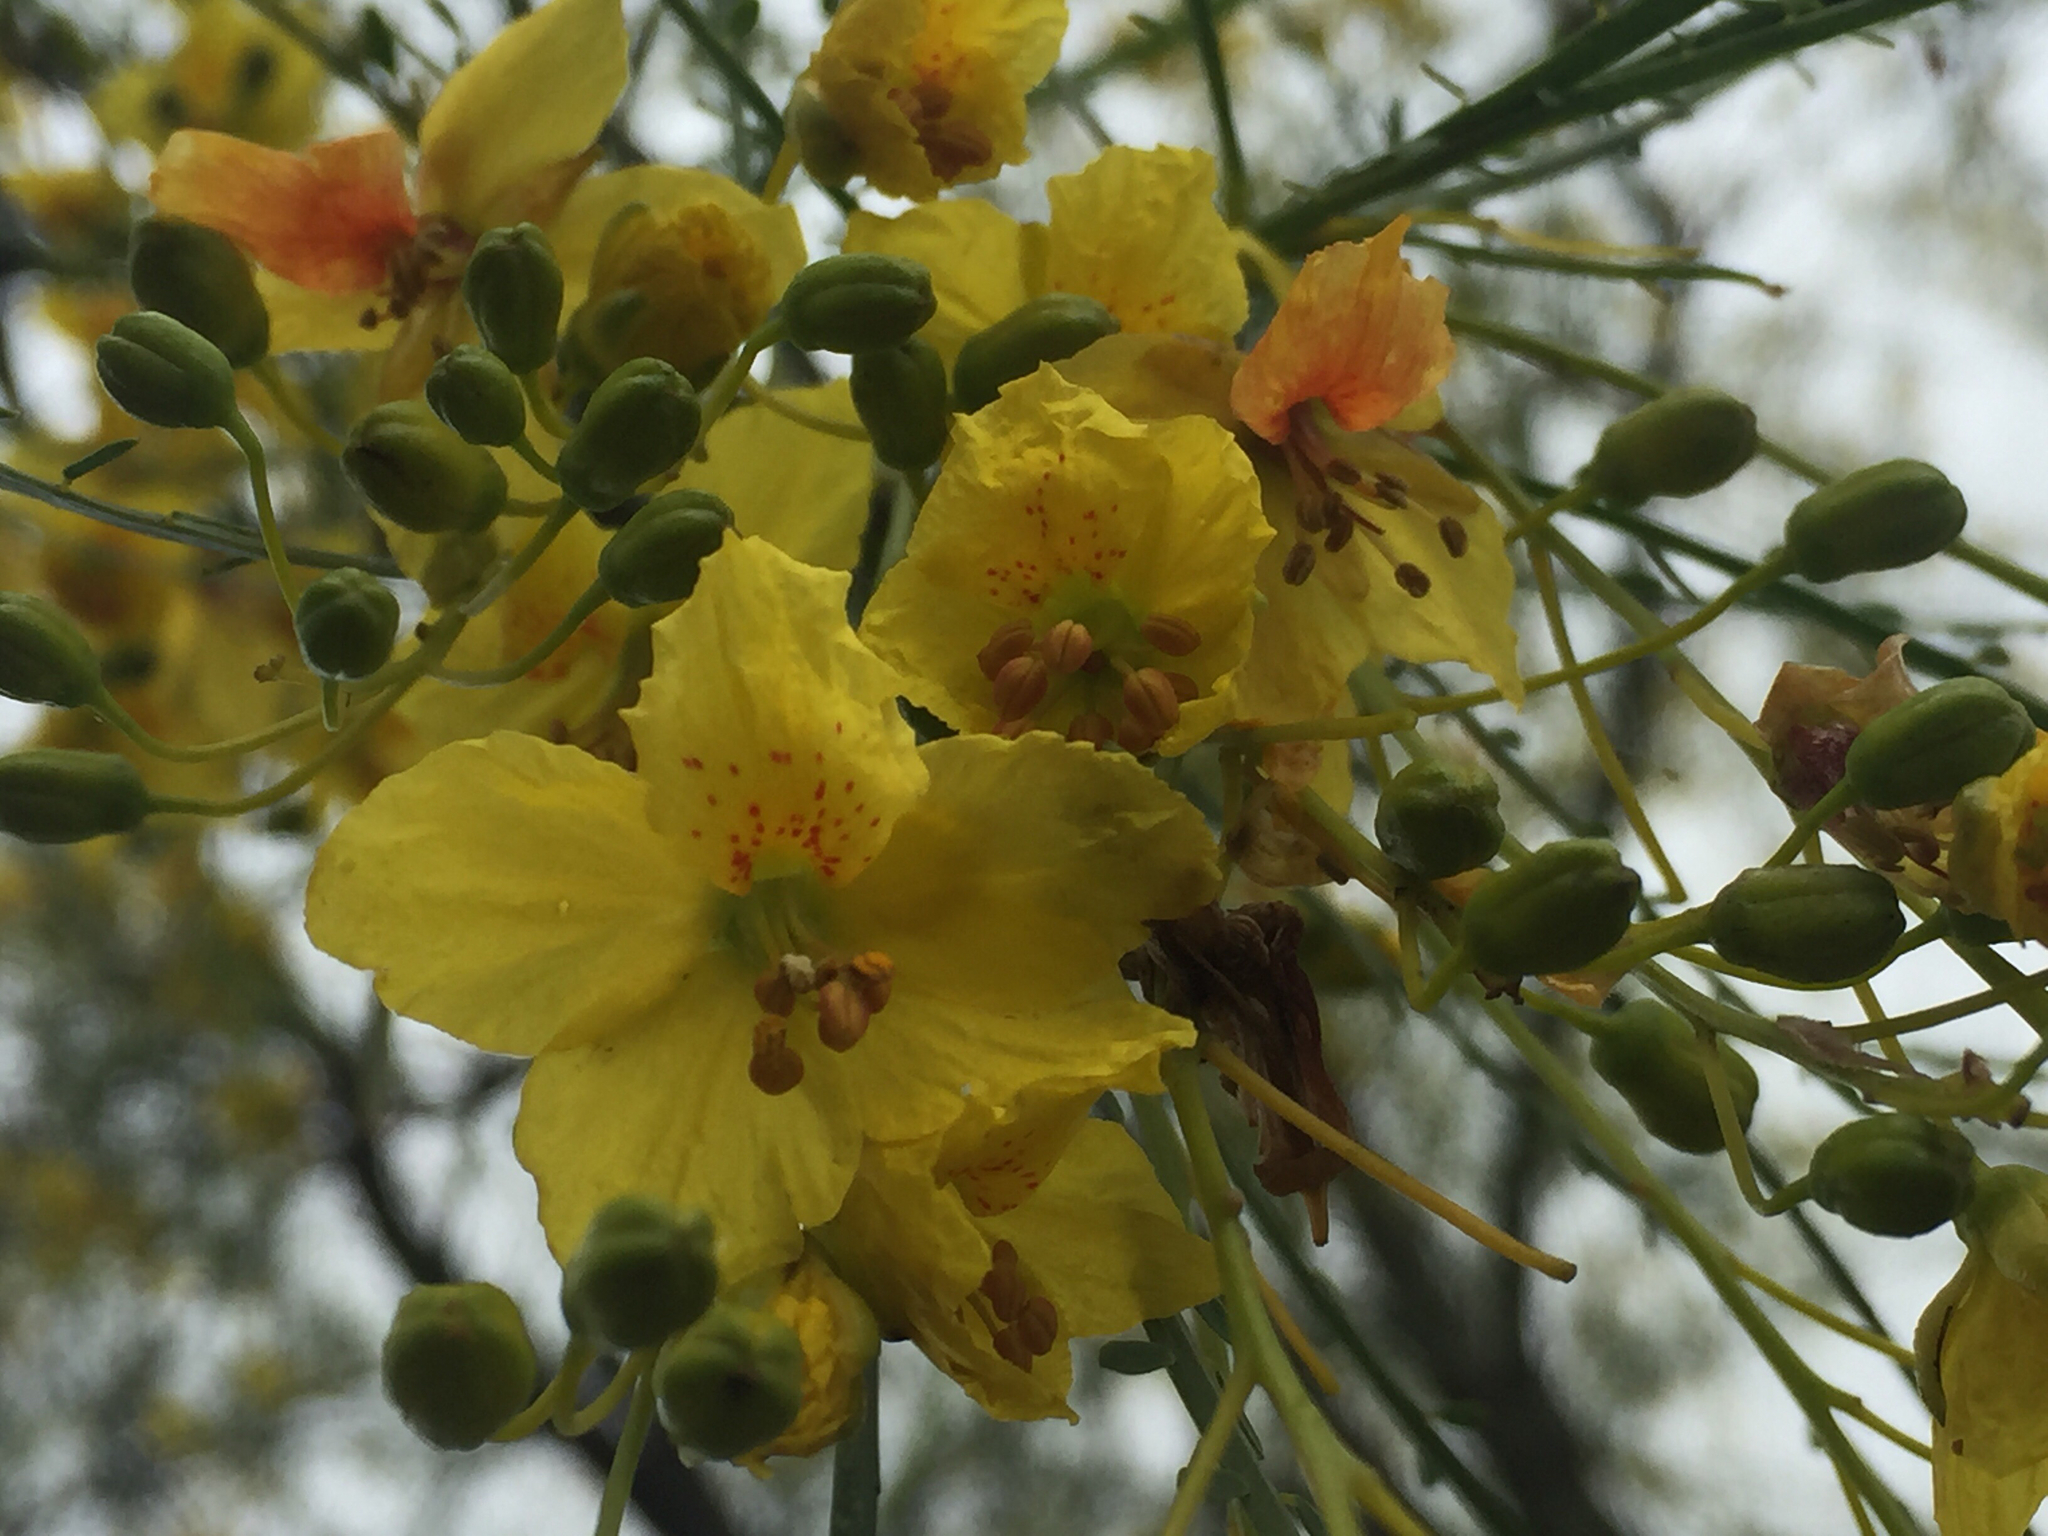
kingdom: Plantae
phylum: Tracheophyta
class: Magnoliopsida
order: Fabales
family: Fabaceae
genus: Parkinsonia
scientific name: Parkinsonia aculeata
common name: Jerusalem thorn
